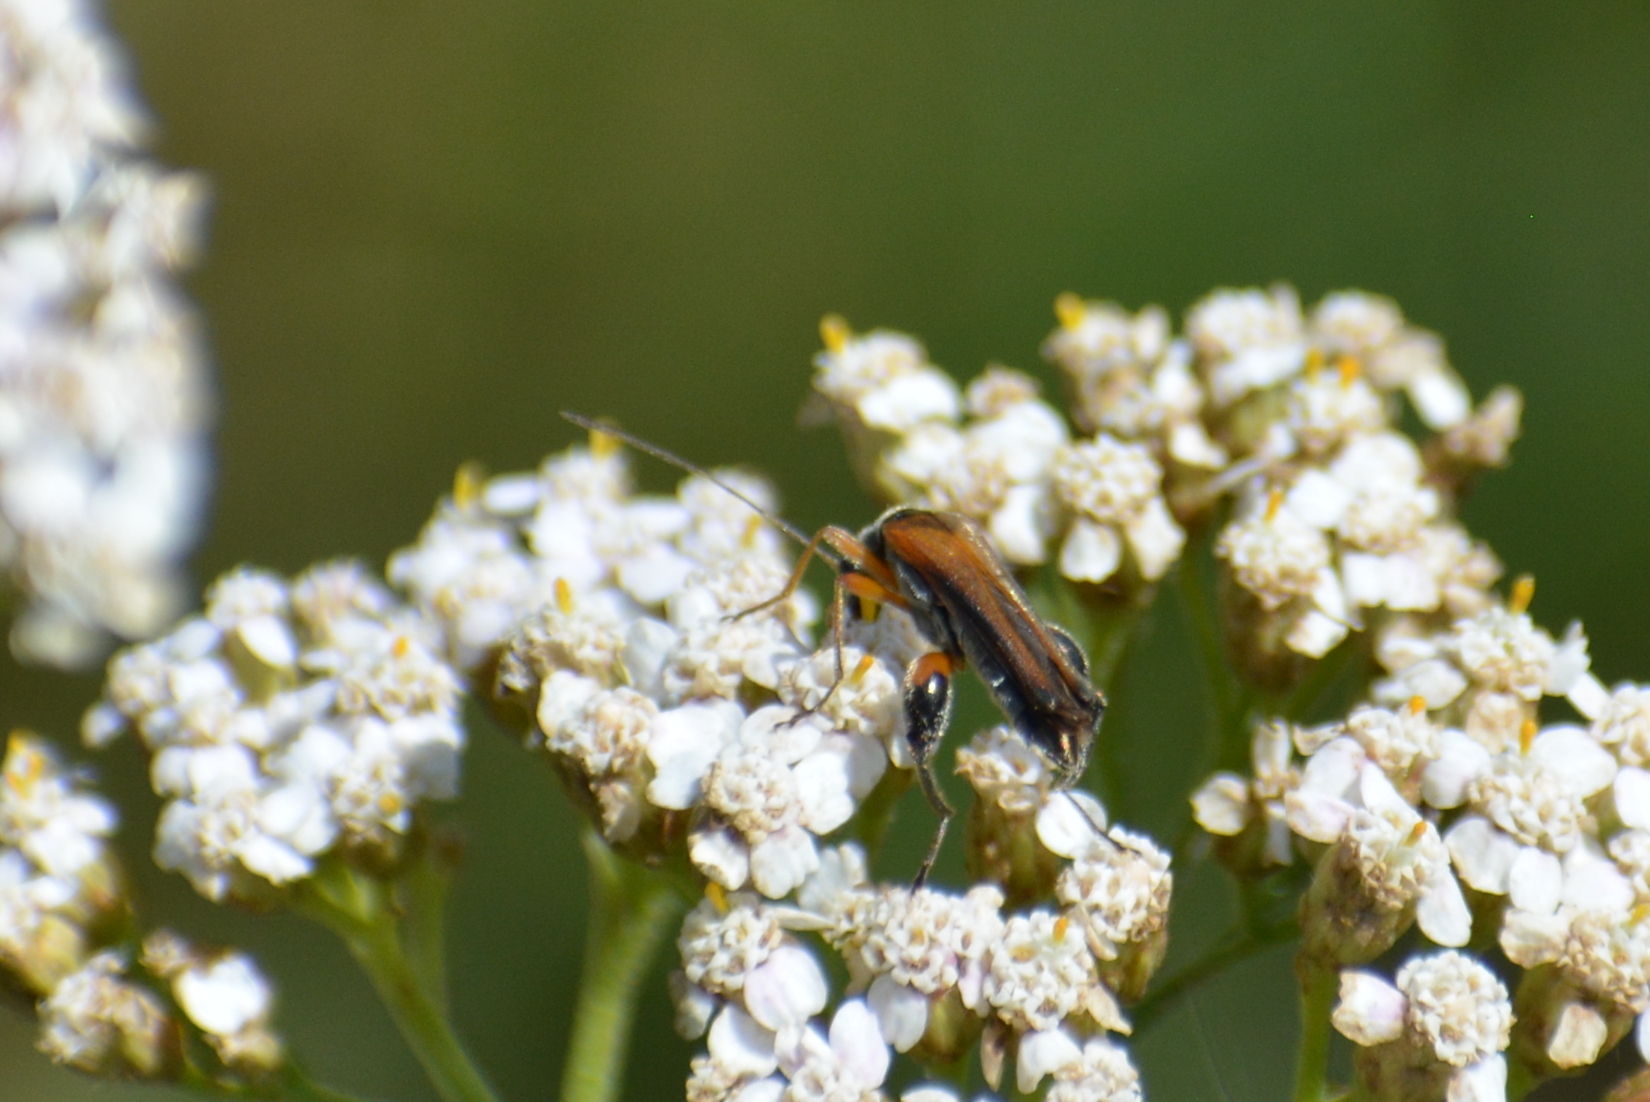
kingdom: Animalia
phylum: Arthropoda
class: Insecta
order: Coleoptera
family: Oedemeridae
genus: Oedemera
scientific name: Oedemera podagrariae
